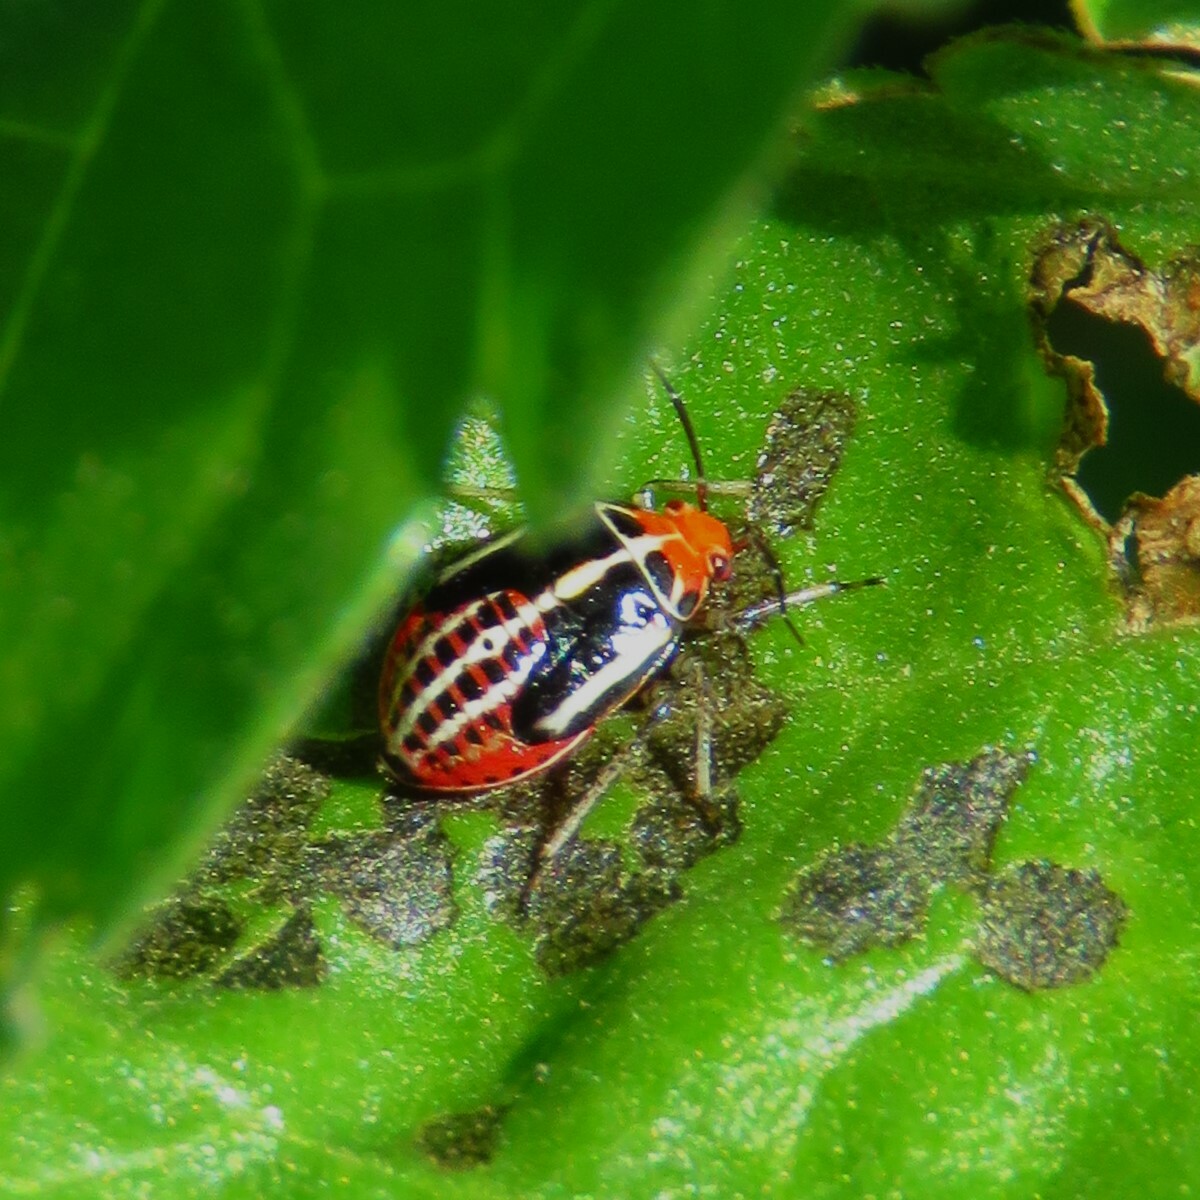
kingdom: Animalia
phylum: Arthropoda
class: Insecta
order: Hemiptera
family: Miridae
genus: Poecilocapsus
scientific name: Poecilocapsus lineatus
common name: Four-lined plant bug
